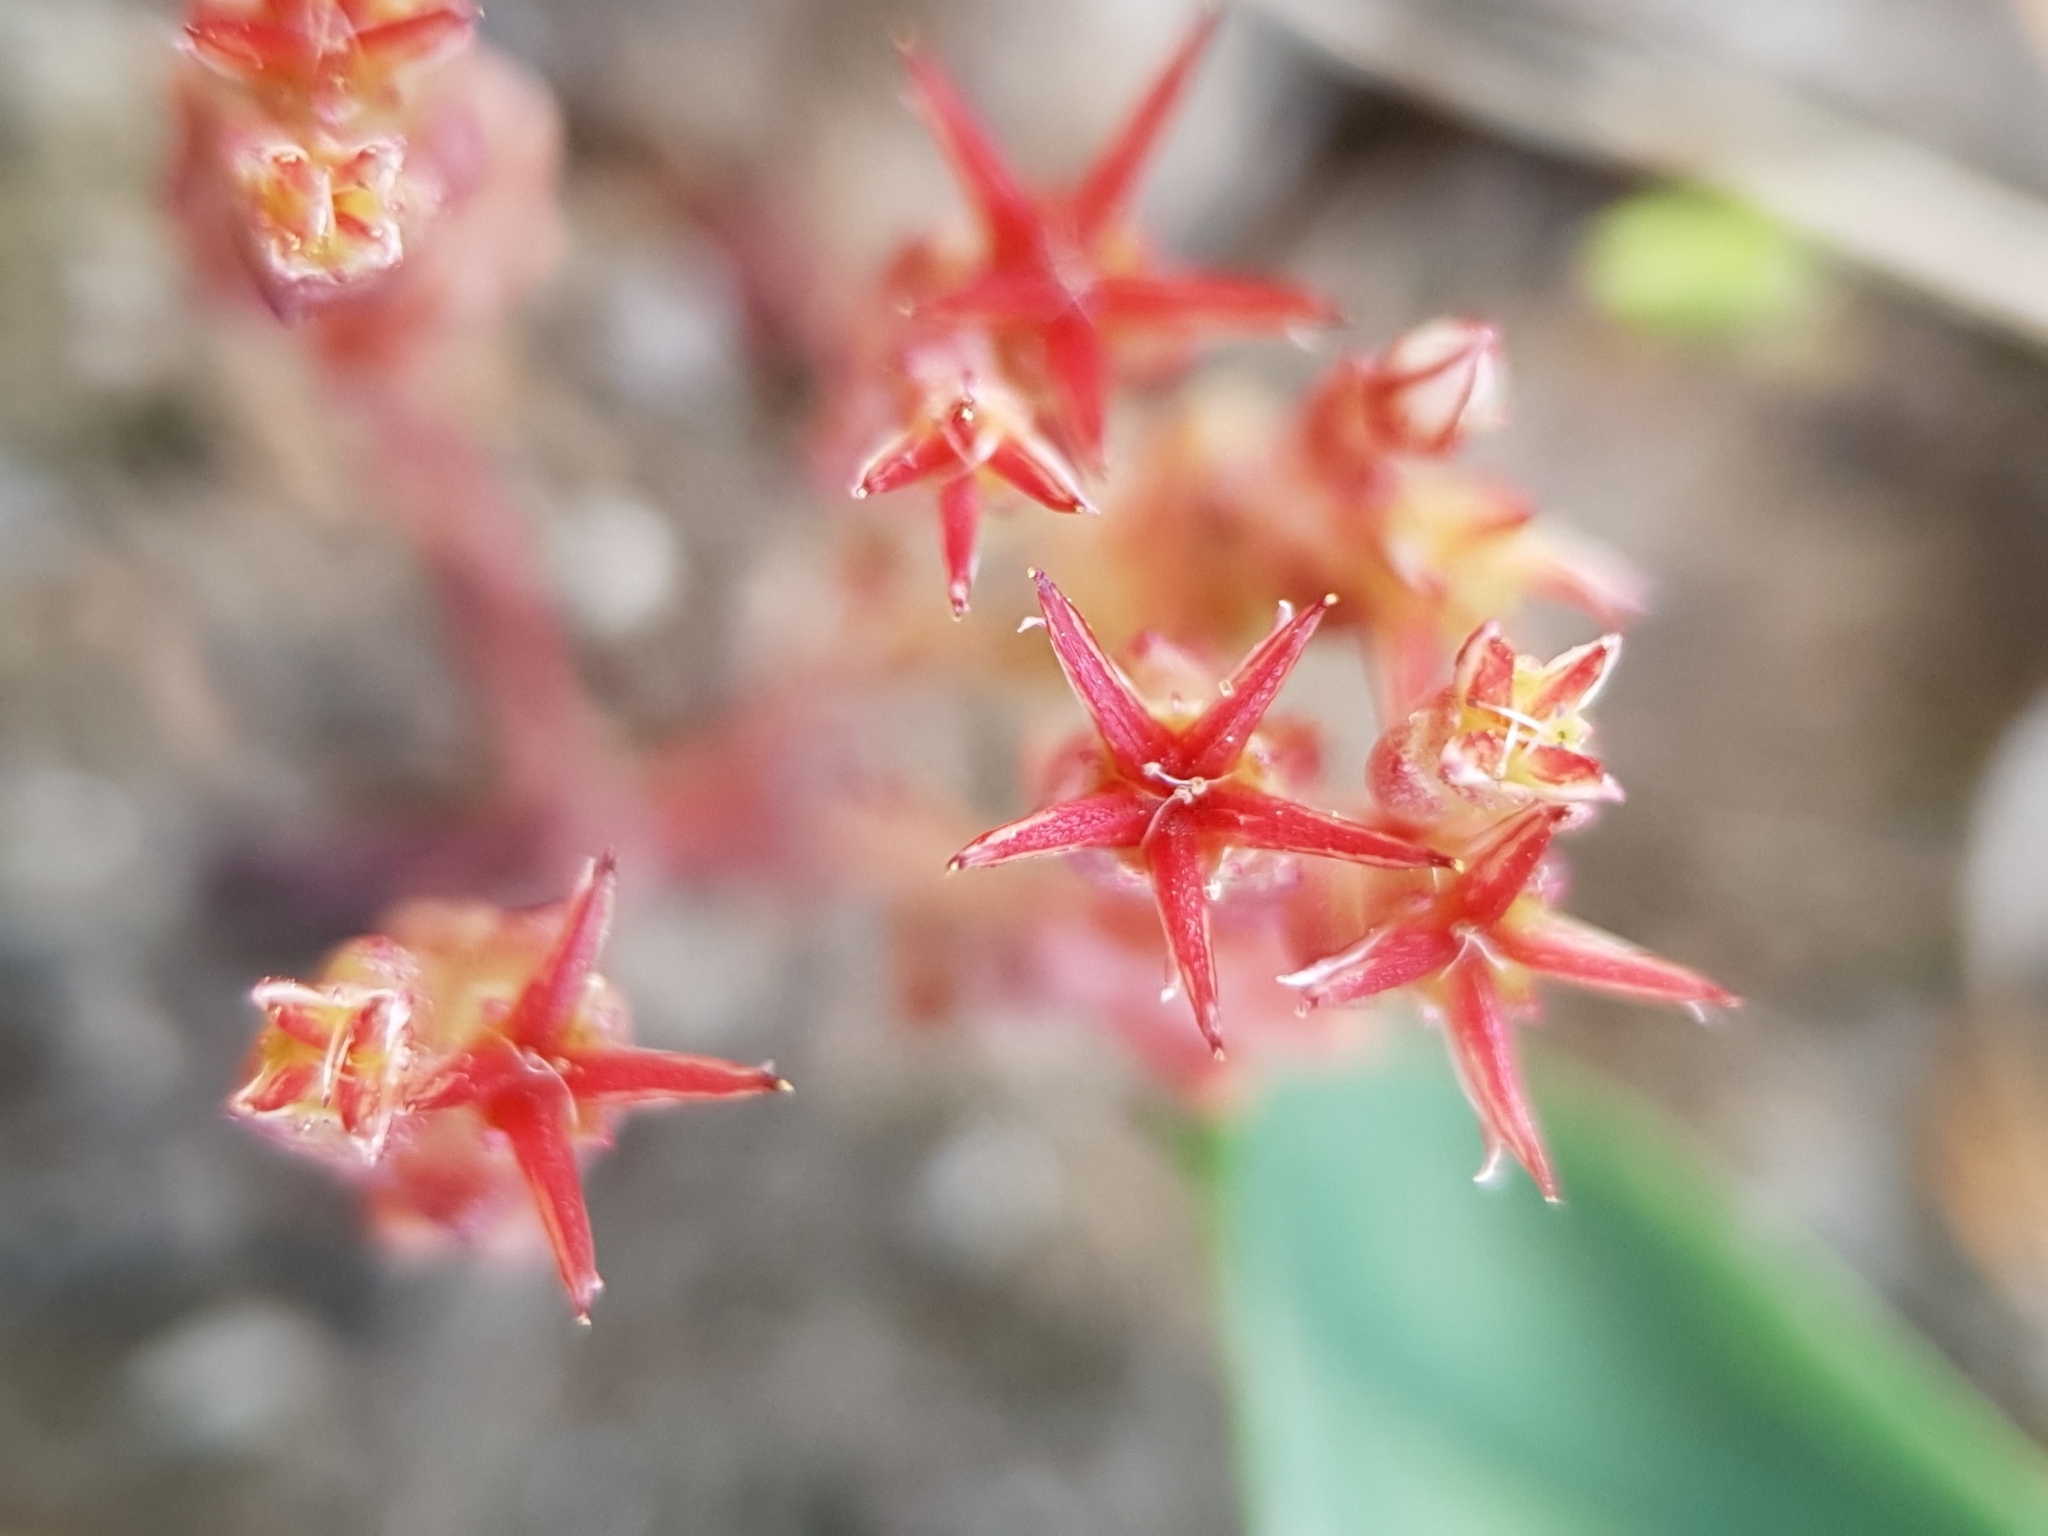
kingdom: Plantae
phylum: Tracheophyta
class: Magnoliopsida
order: Saxifragales
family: Crassulaceae
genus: Sedum
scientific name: Sedum cespitosum
